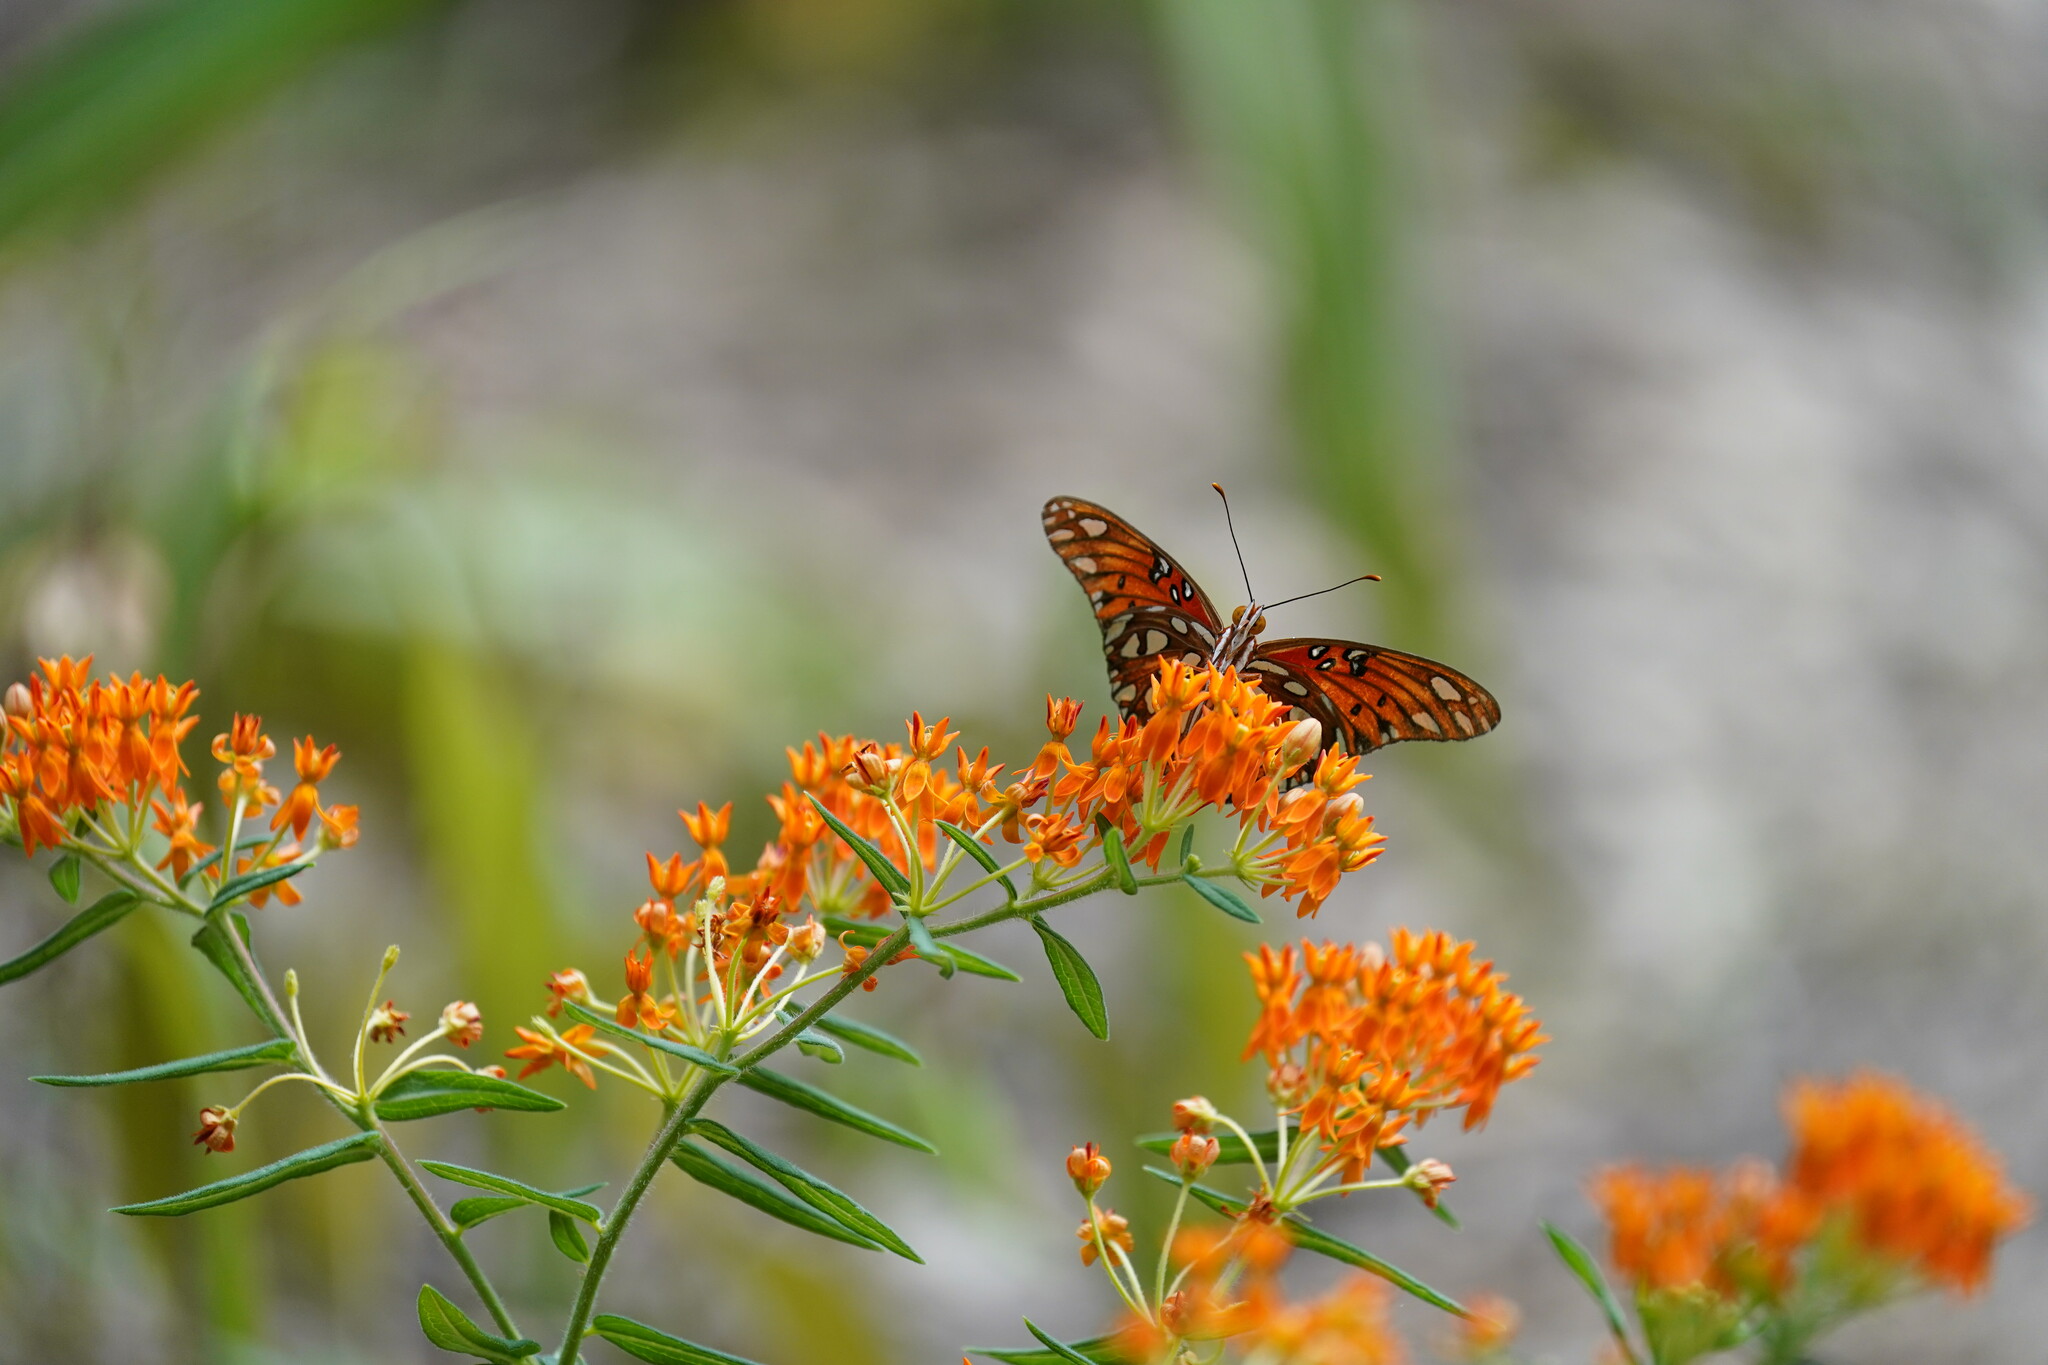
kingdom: Animalia
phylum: Arthropoda
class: Insecta
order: Lepidoptera
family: Nymphalidae
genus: Dione
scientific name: Dione vanillae
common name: Gulf fritillary
